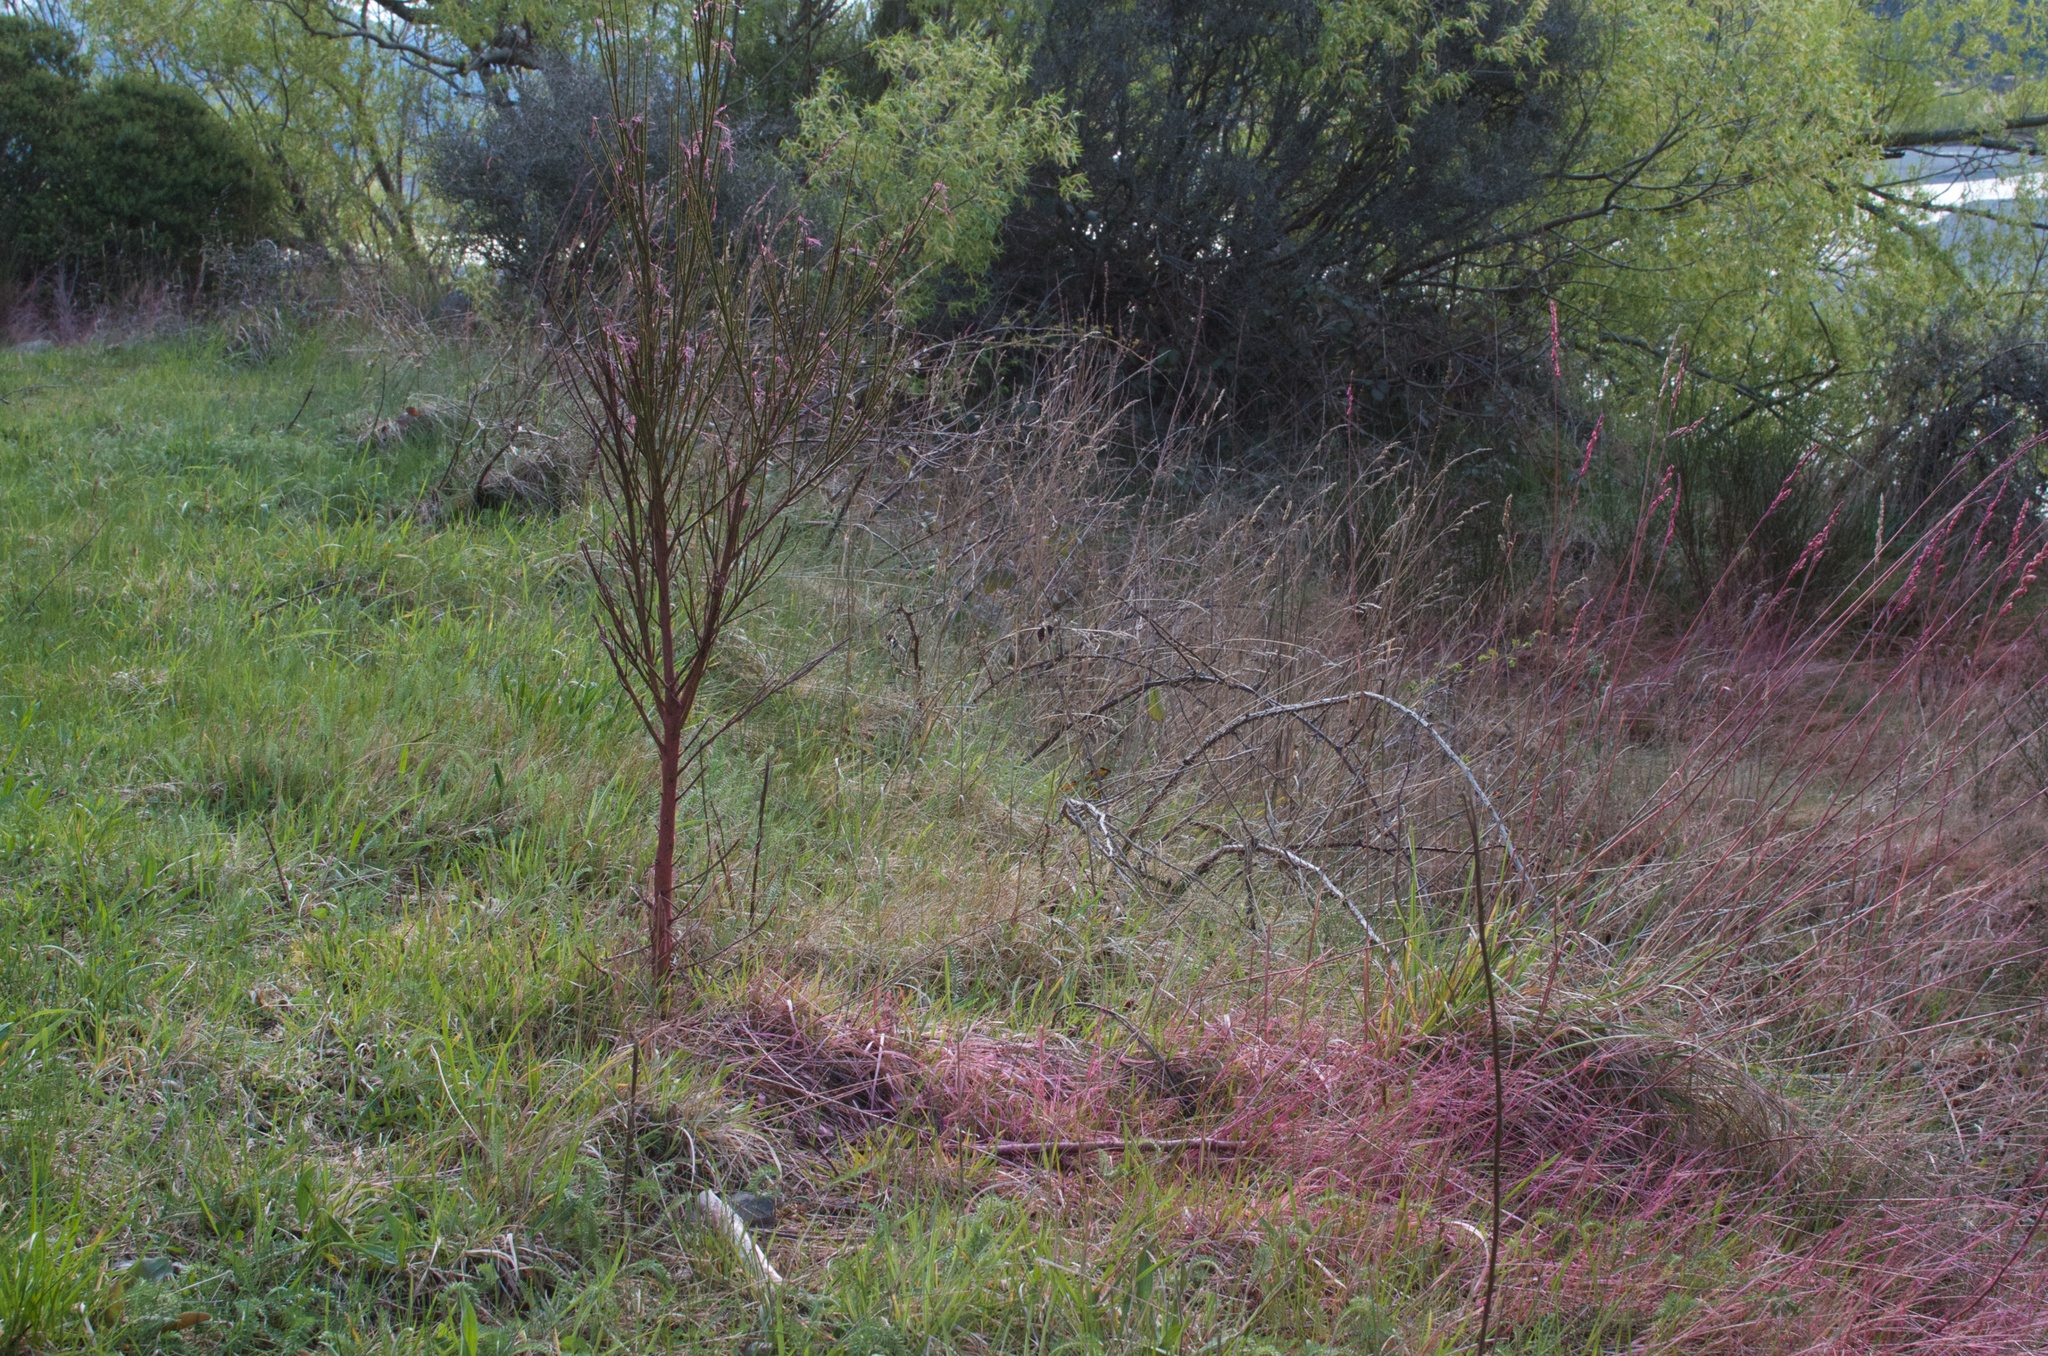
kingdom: Plantae
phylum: Tracheophyta
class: Magnoliopsida
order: Fabales
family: Fabaceae
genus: Cytisus
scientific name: Cytisus scoparius
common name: Scotch broom
